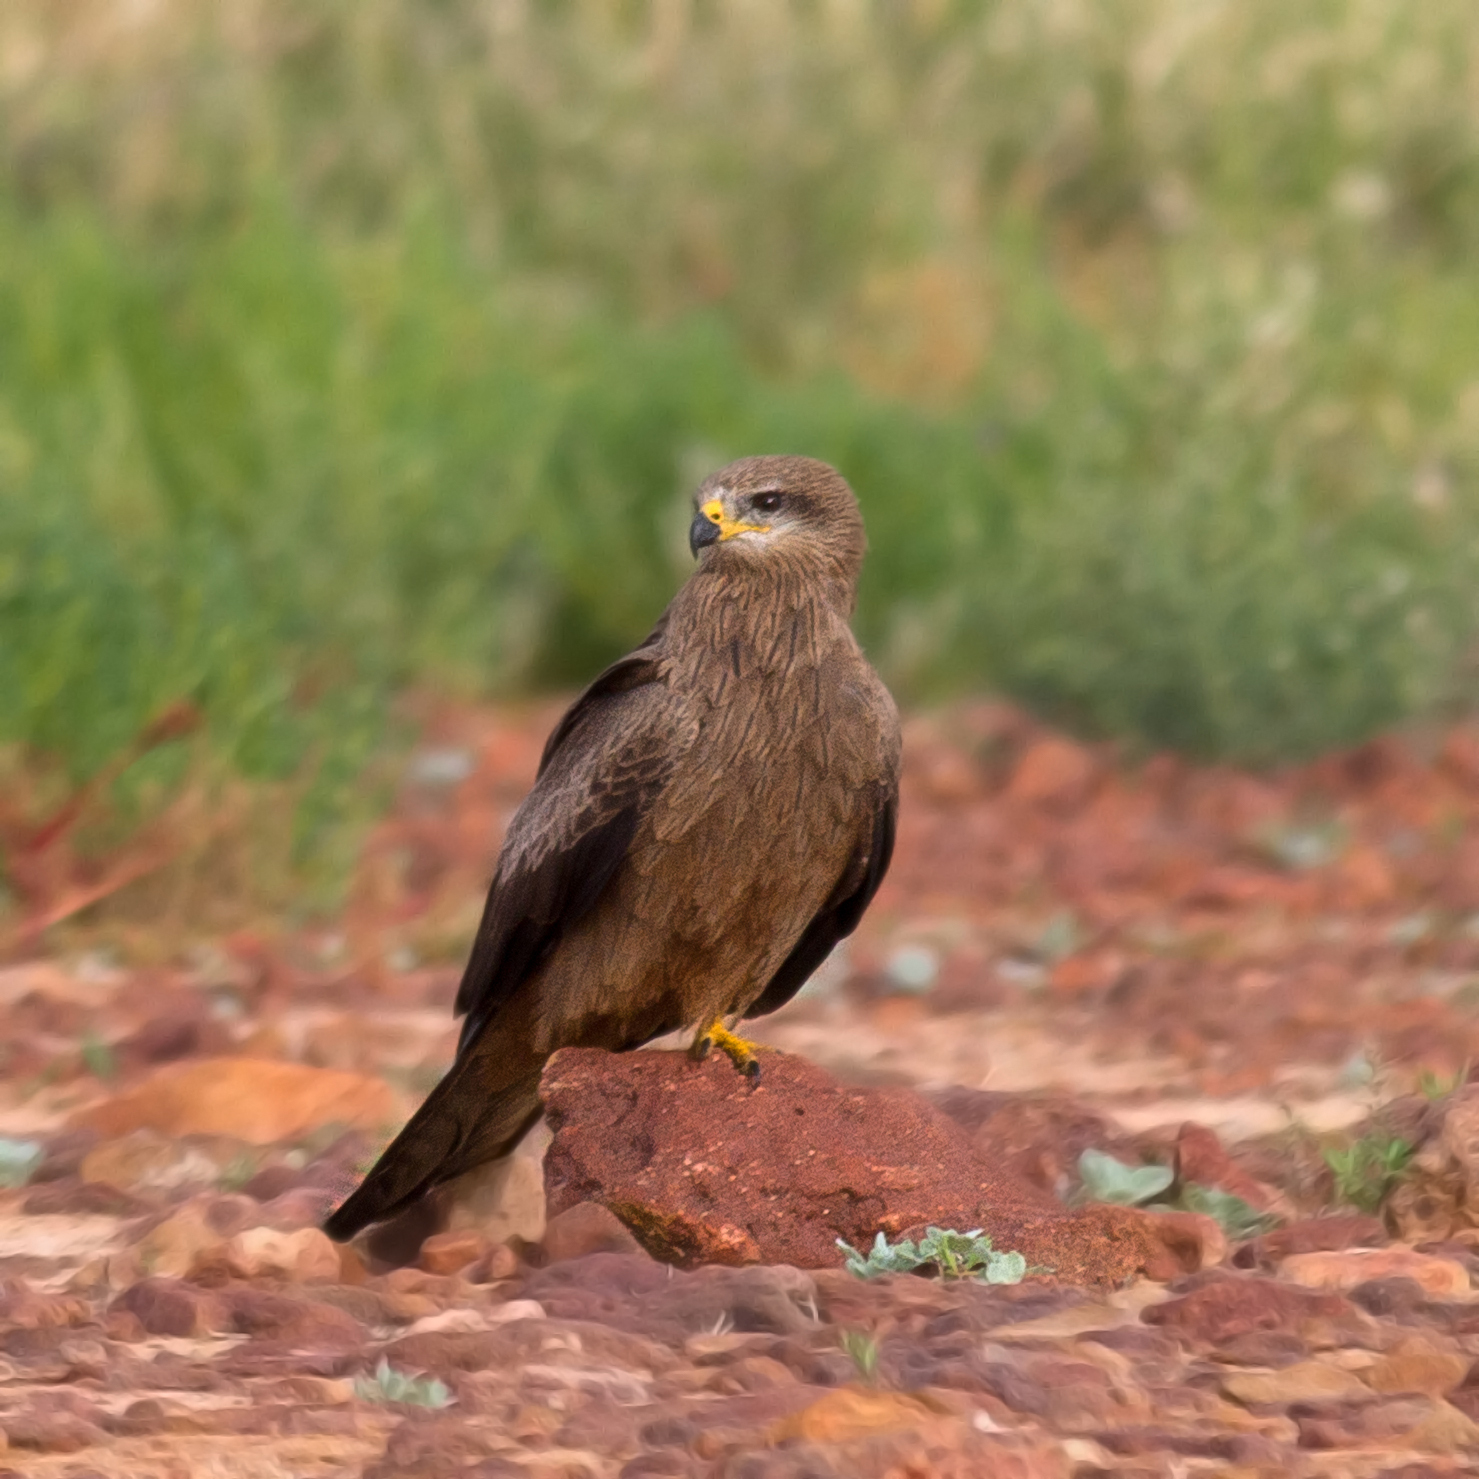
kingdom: Animalia
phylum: Chordata
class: Aves
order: Accipitriformes
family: Accipitridae
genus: Milvus
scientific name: Milvus migrans
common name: Black kite
